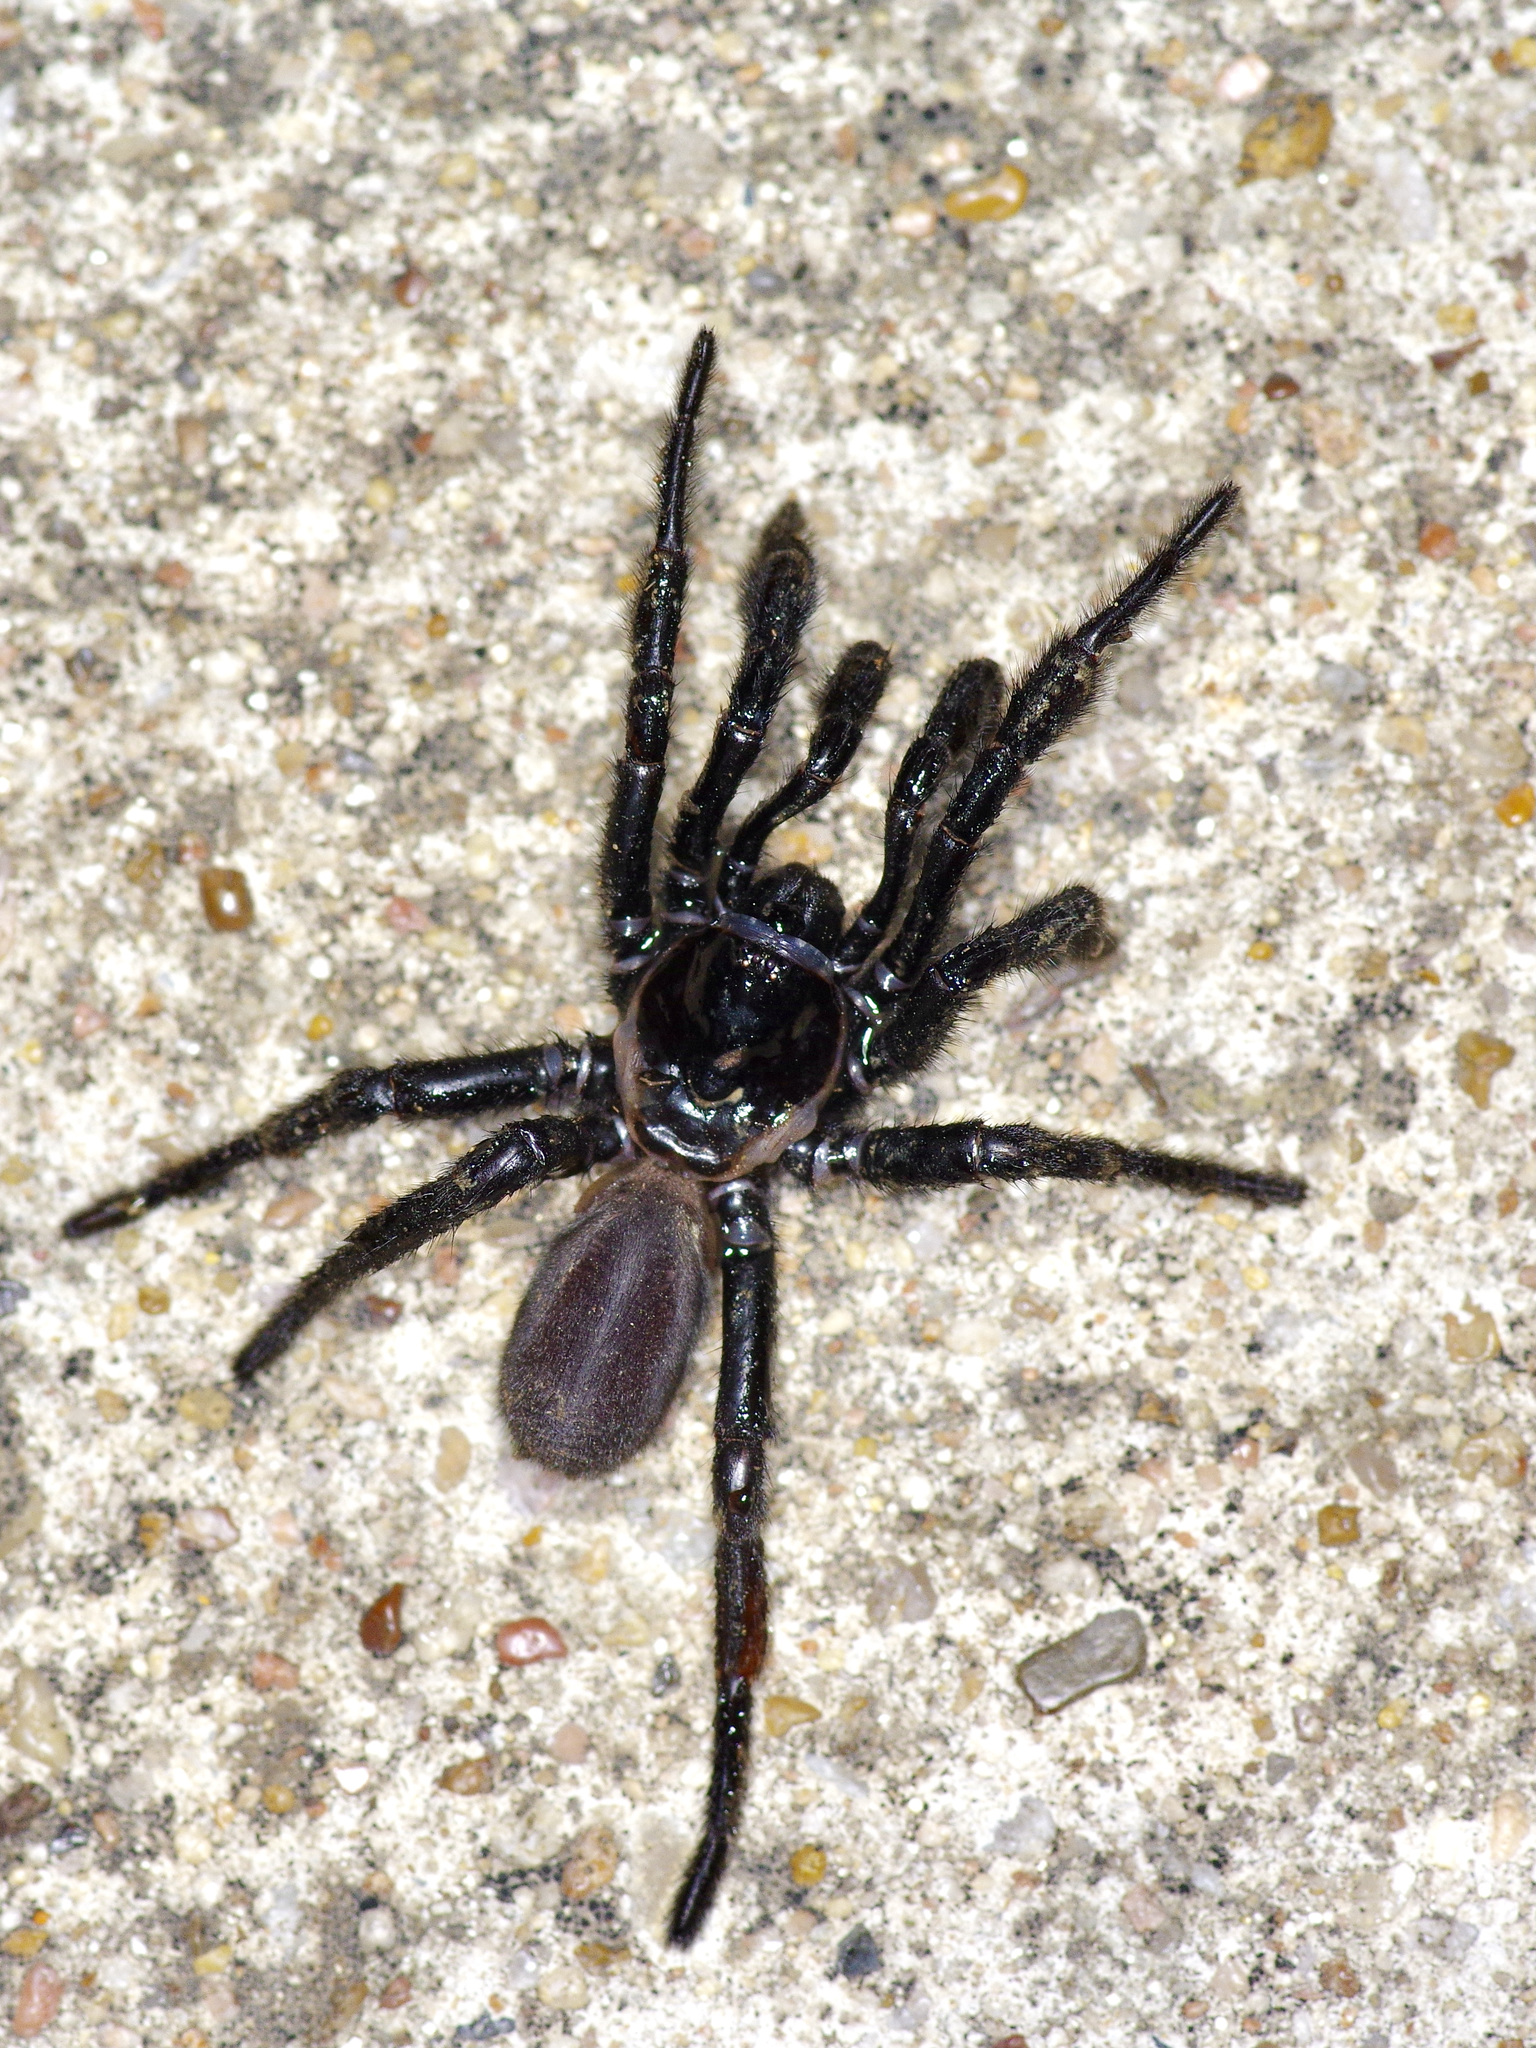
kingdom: Animalia
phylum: Arthropoda
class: Arachnida
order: Araneae
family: Euctenizidae
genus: Eucteniza
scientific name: Eucteniza relata
